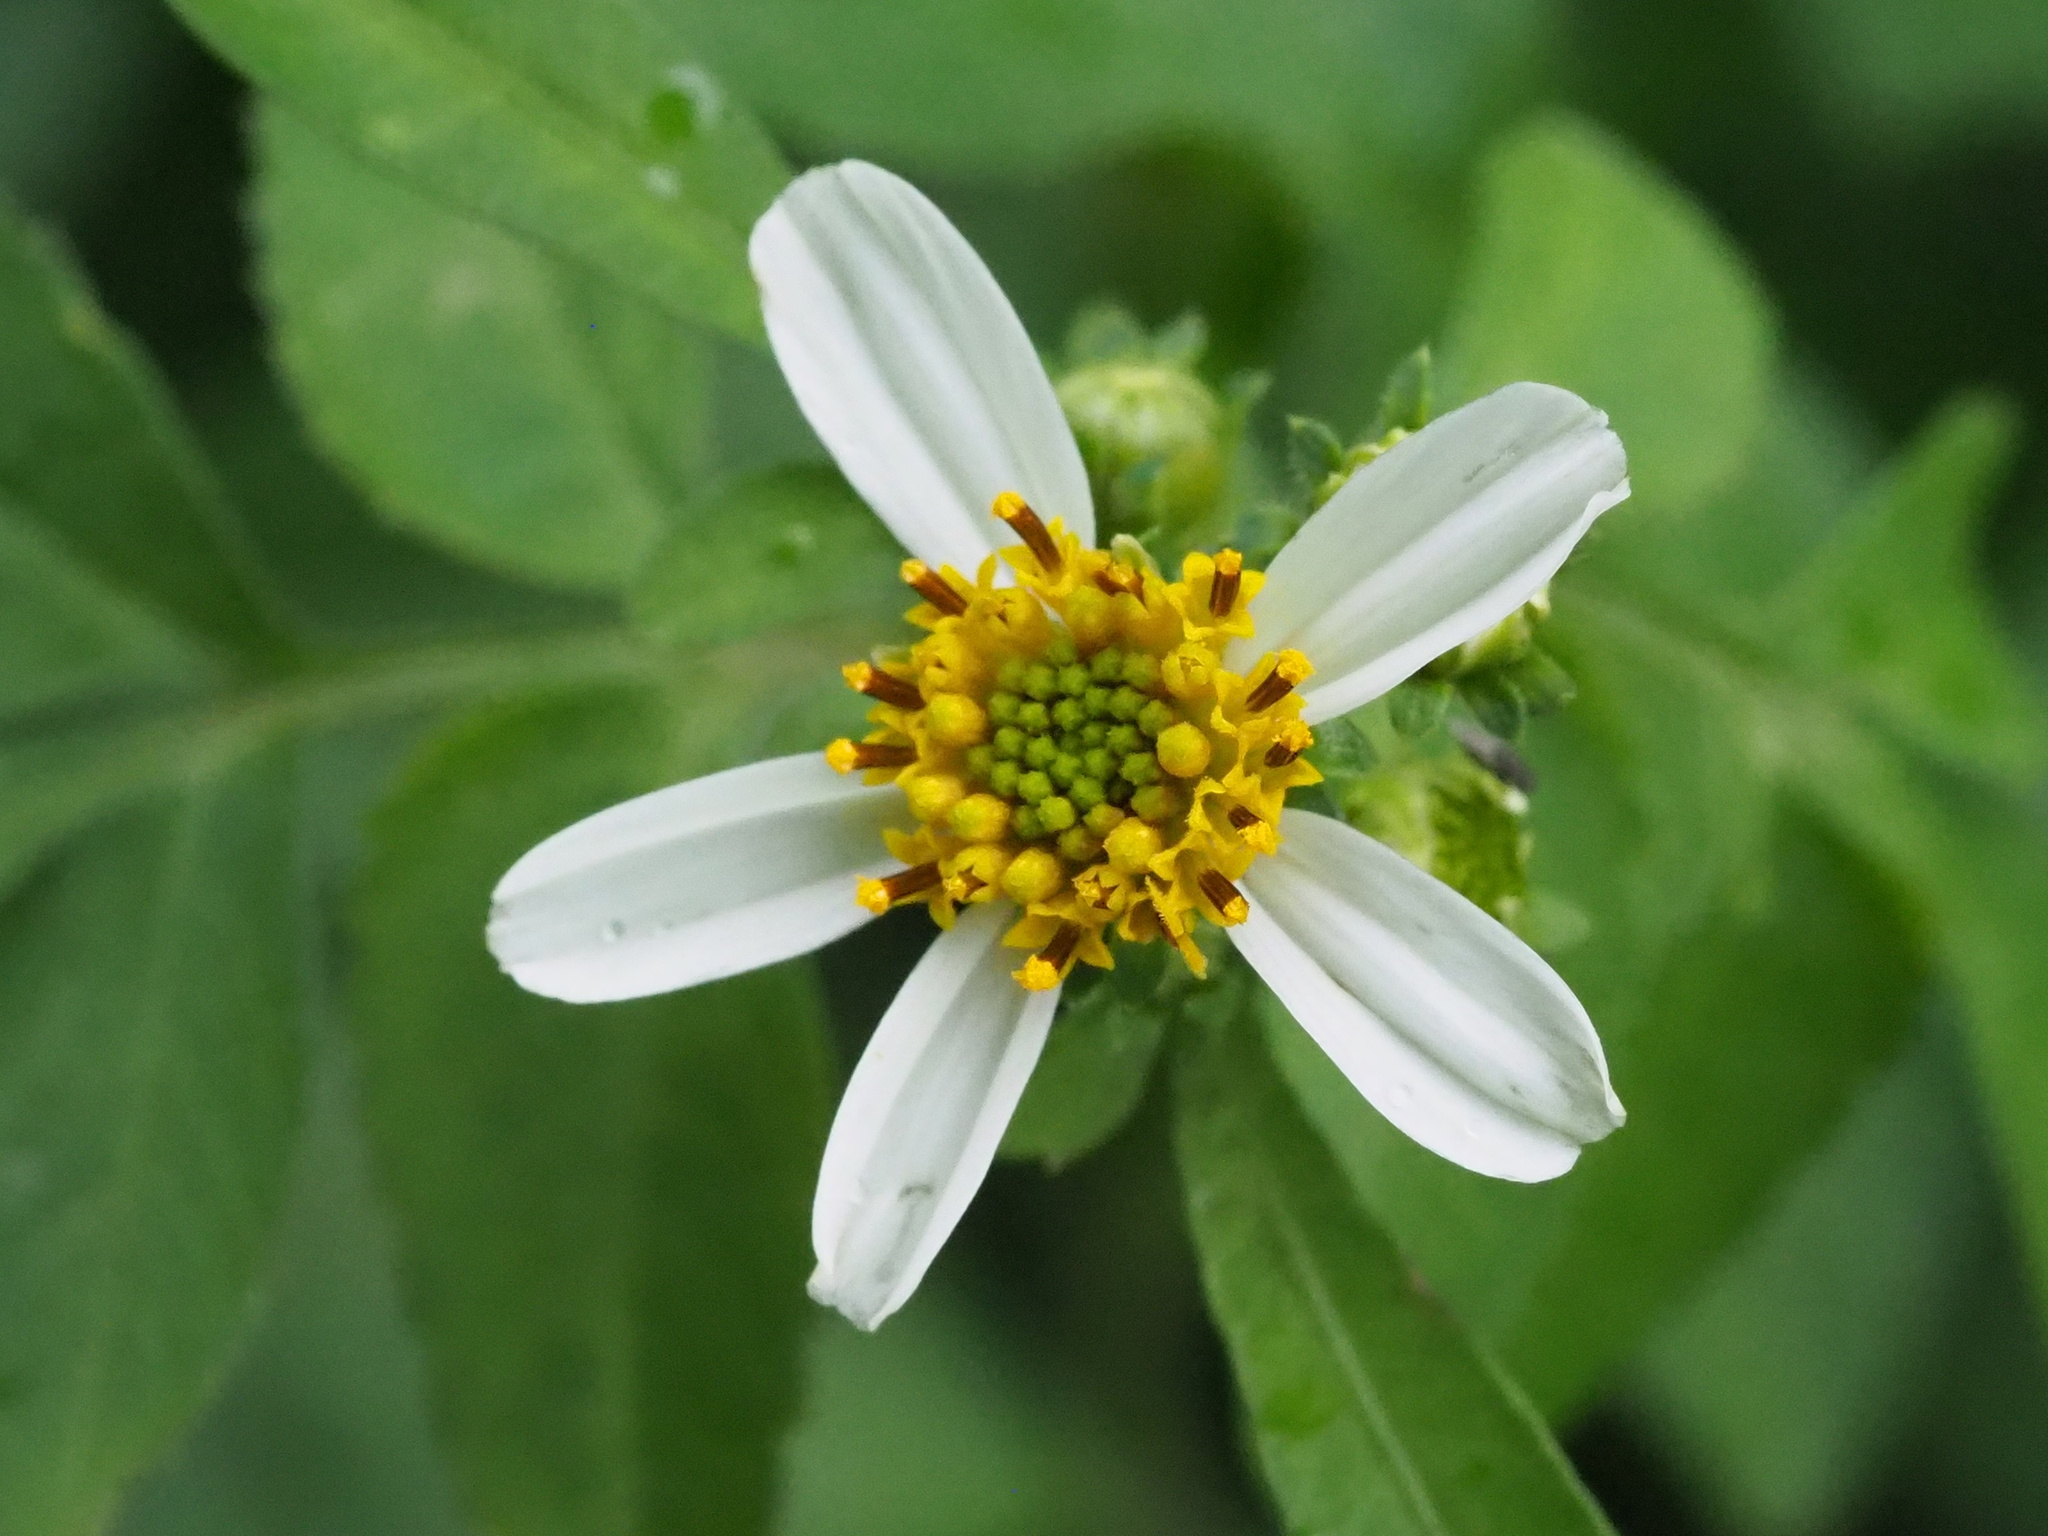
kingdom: Plantae
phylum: Tracheophyta
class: Magnoliopsida
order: Asterales
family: Asteraceae
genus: Bidens
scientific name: Bidens alba
